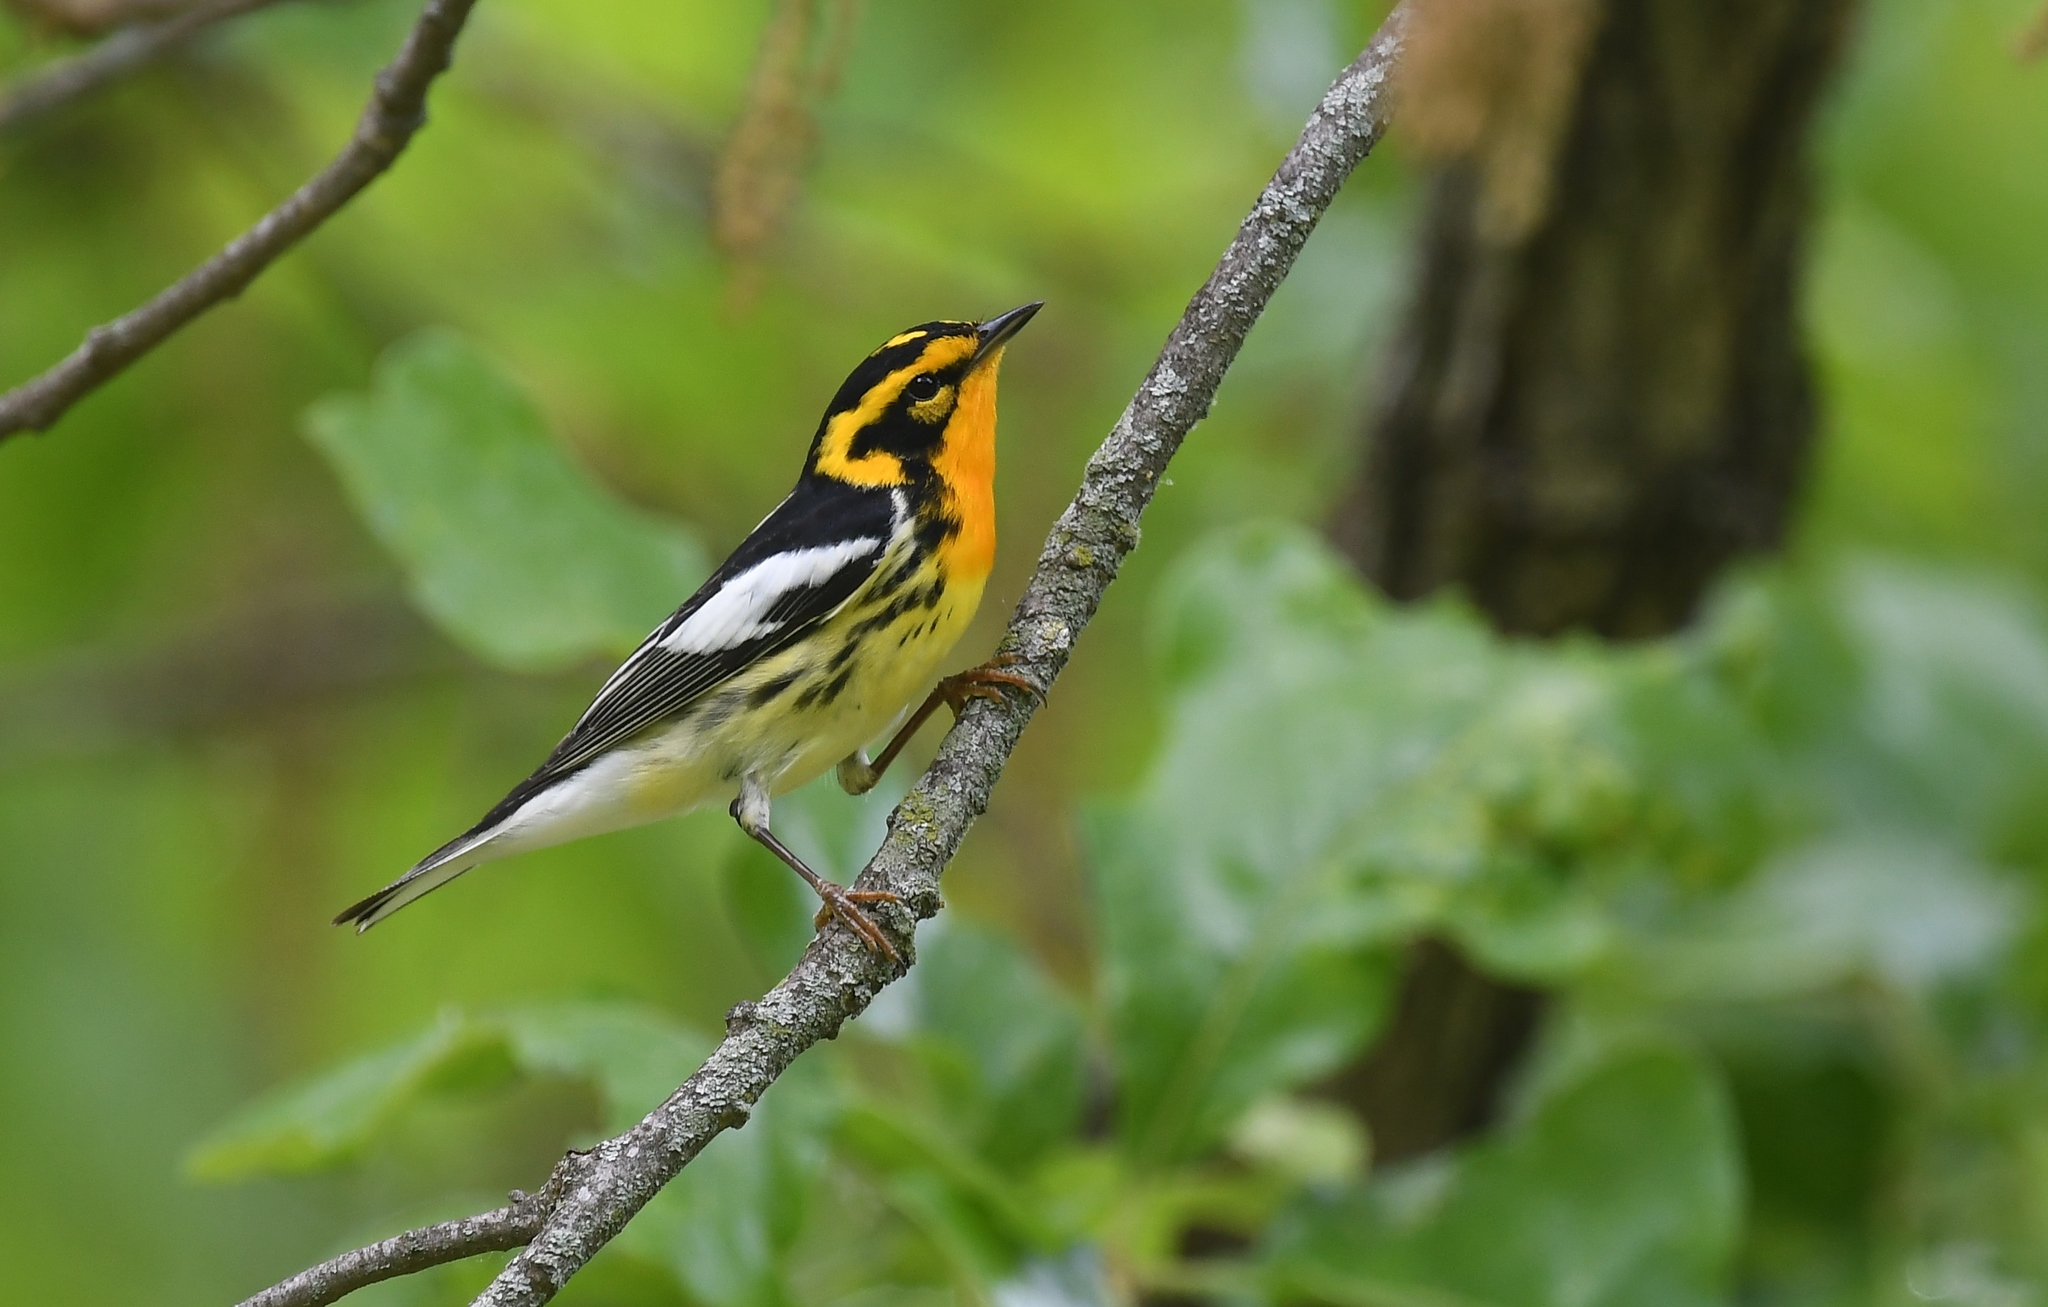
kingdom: Animalia
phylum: Chordata
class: Aves
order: Passeriformes
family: Parulidae
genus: Setophaga
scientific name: Setophaga fusca
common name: Blackburnian warbler
